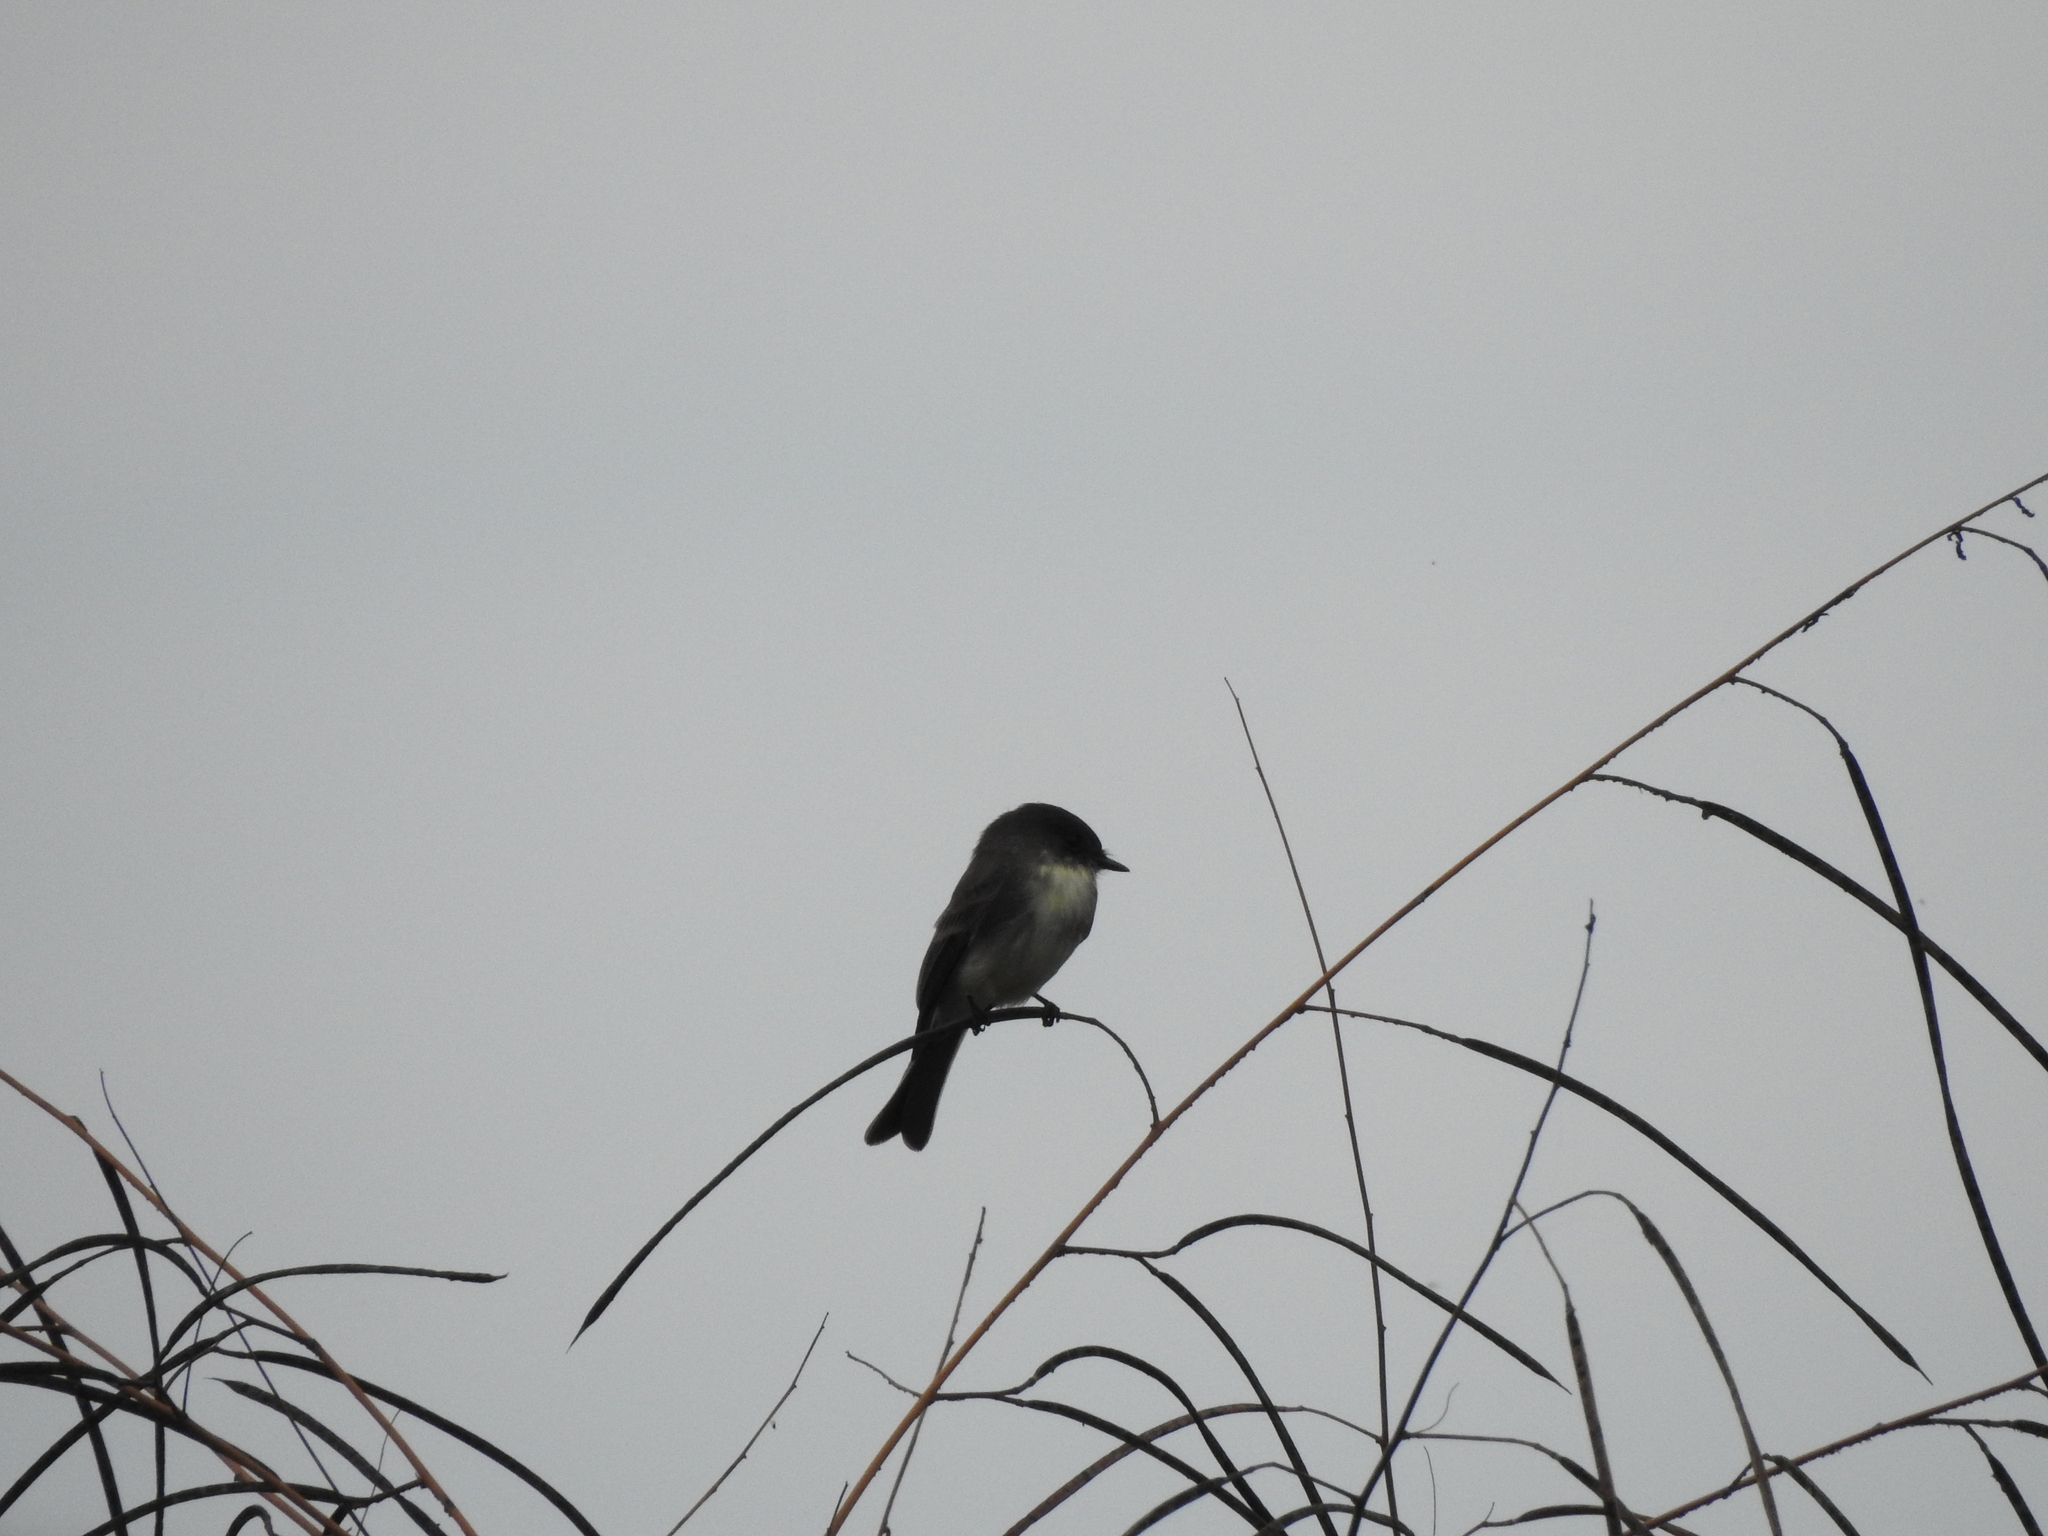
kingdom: Animalia
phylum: Chordata
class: Aves
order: Passeriformes
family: Tyrannidae
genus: Sayornis
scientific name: Sayornis phoebe
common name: Eastern phoebe
